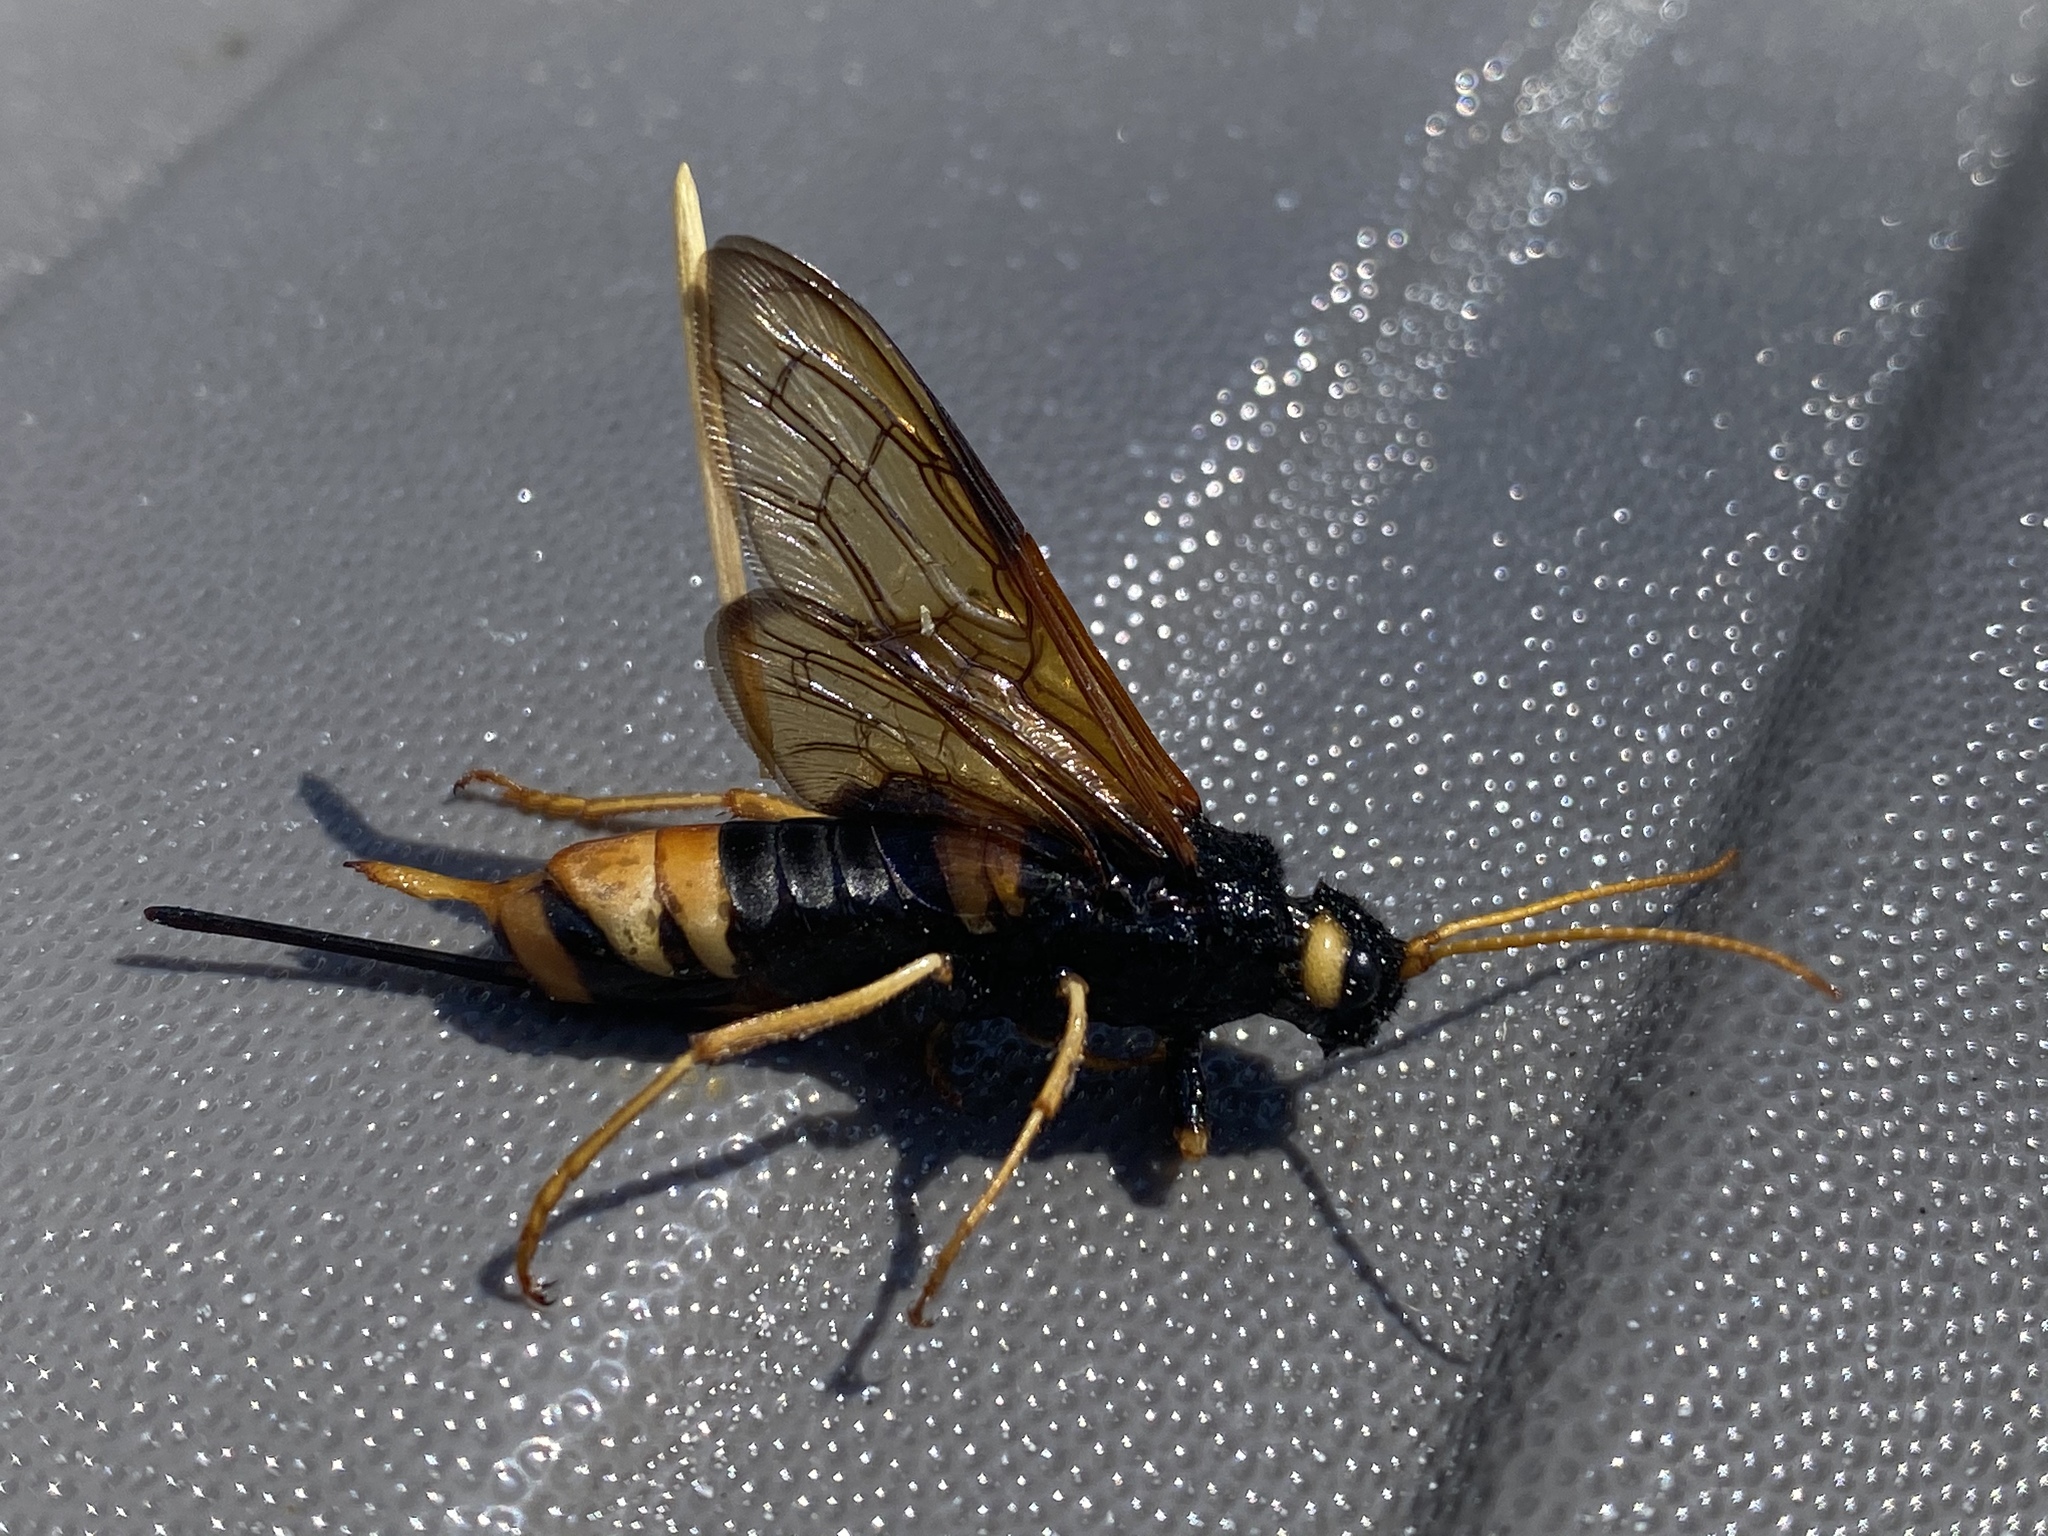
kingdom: Animalia
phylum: Arthropoda
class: Insecta
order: Hymenoptera
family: Siricidae
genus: Urocerus
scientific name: Urocerus gigas
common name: Giant woodwasp
